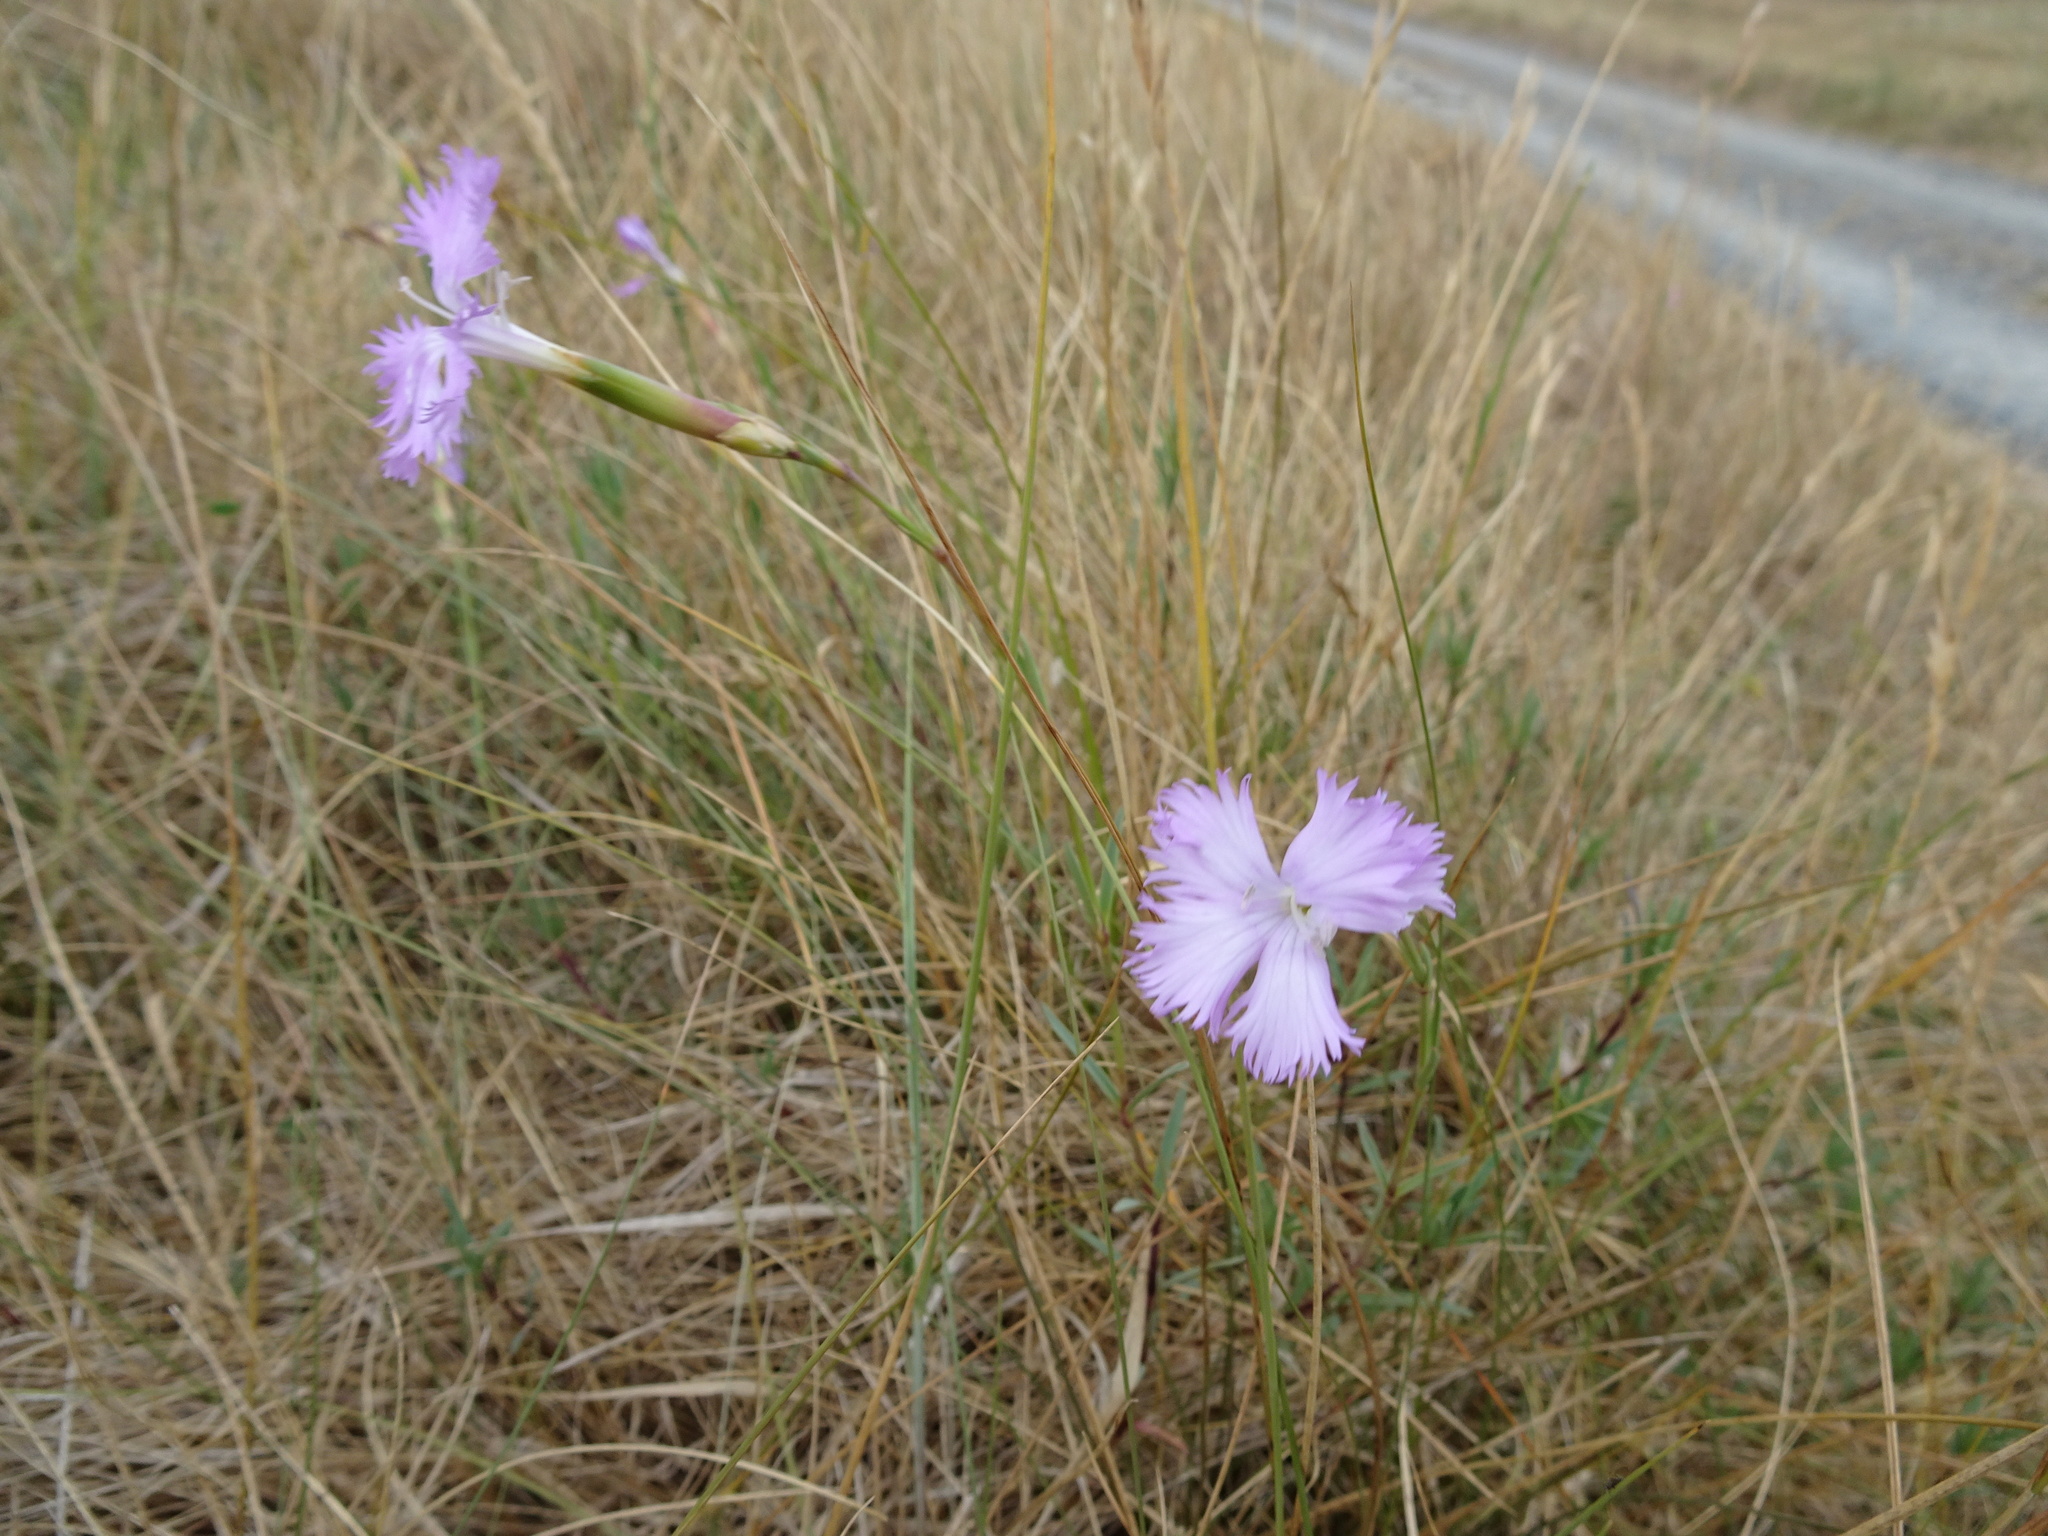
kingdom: Plantae
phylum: Tracheophyta
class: Magnoliopsida
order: Caryophyllales
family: Caryophyllaceae
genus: Dianthus
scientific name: Dianthus gallicus
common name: Jersey pink
